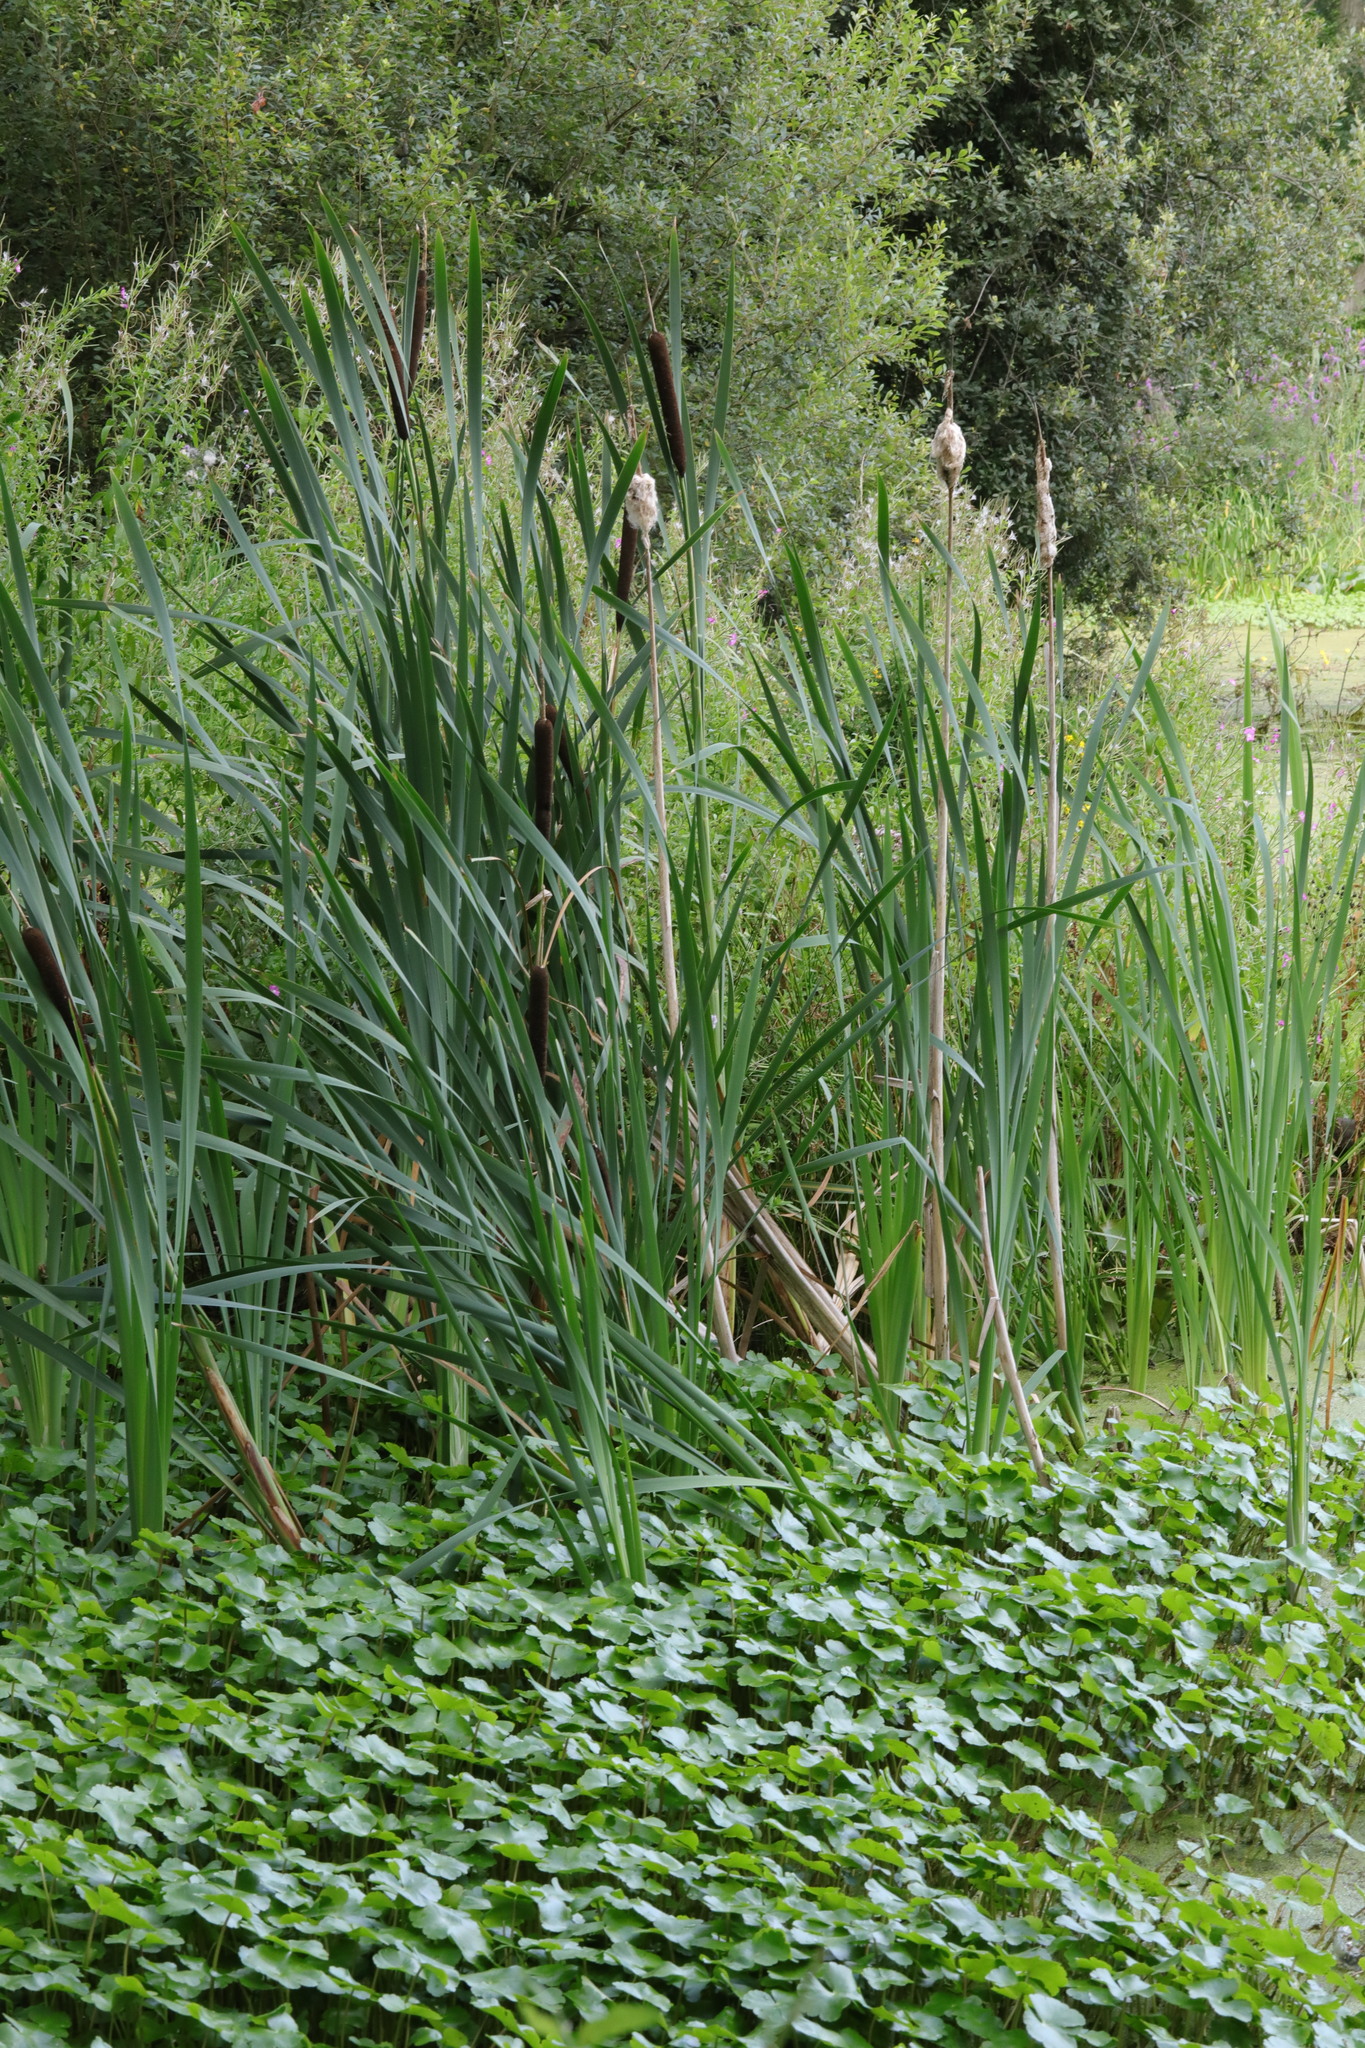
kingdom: Plantae
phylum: Tracheophyta
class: Liliopsida
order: Poales
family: Typhaceae
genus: Typha
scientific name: Typha latifolia
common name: Broadleaf cattail
